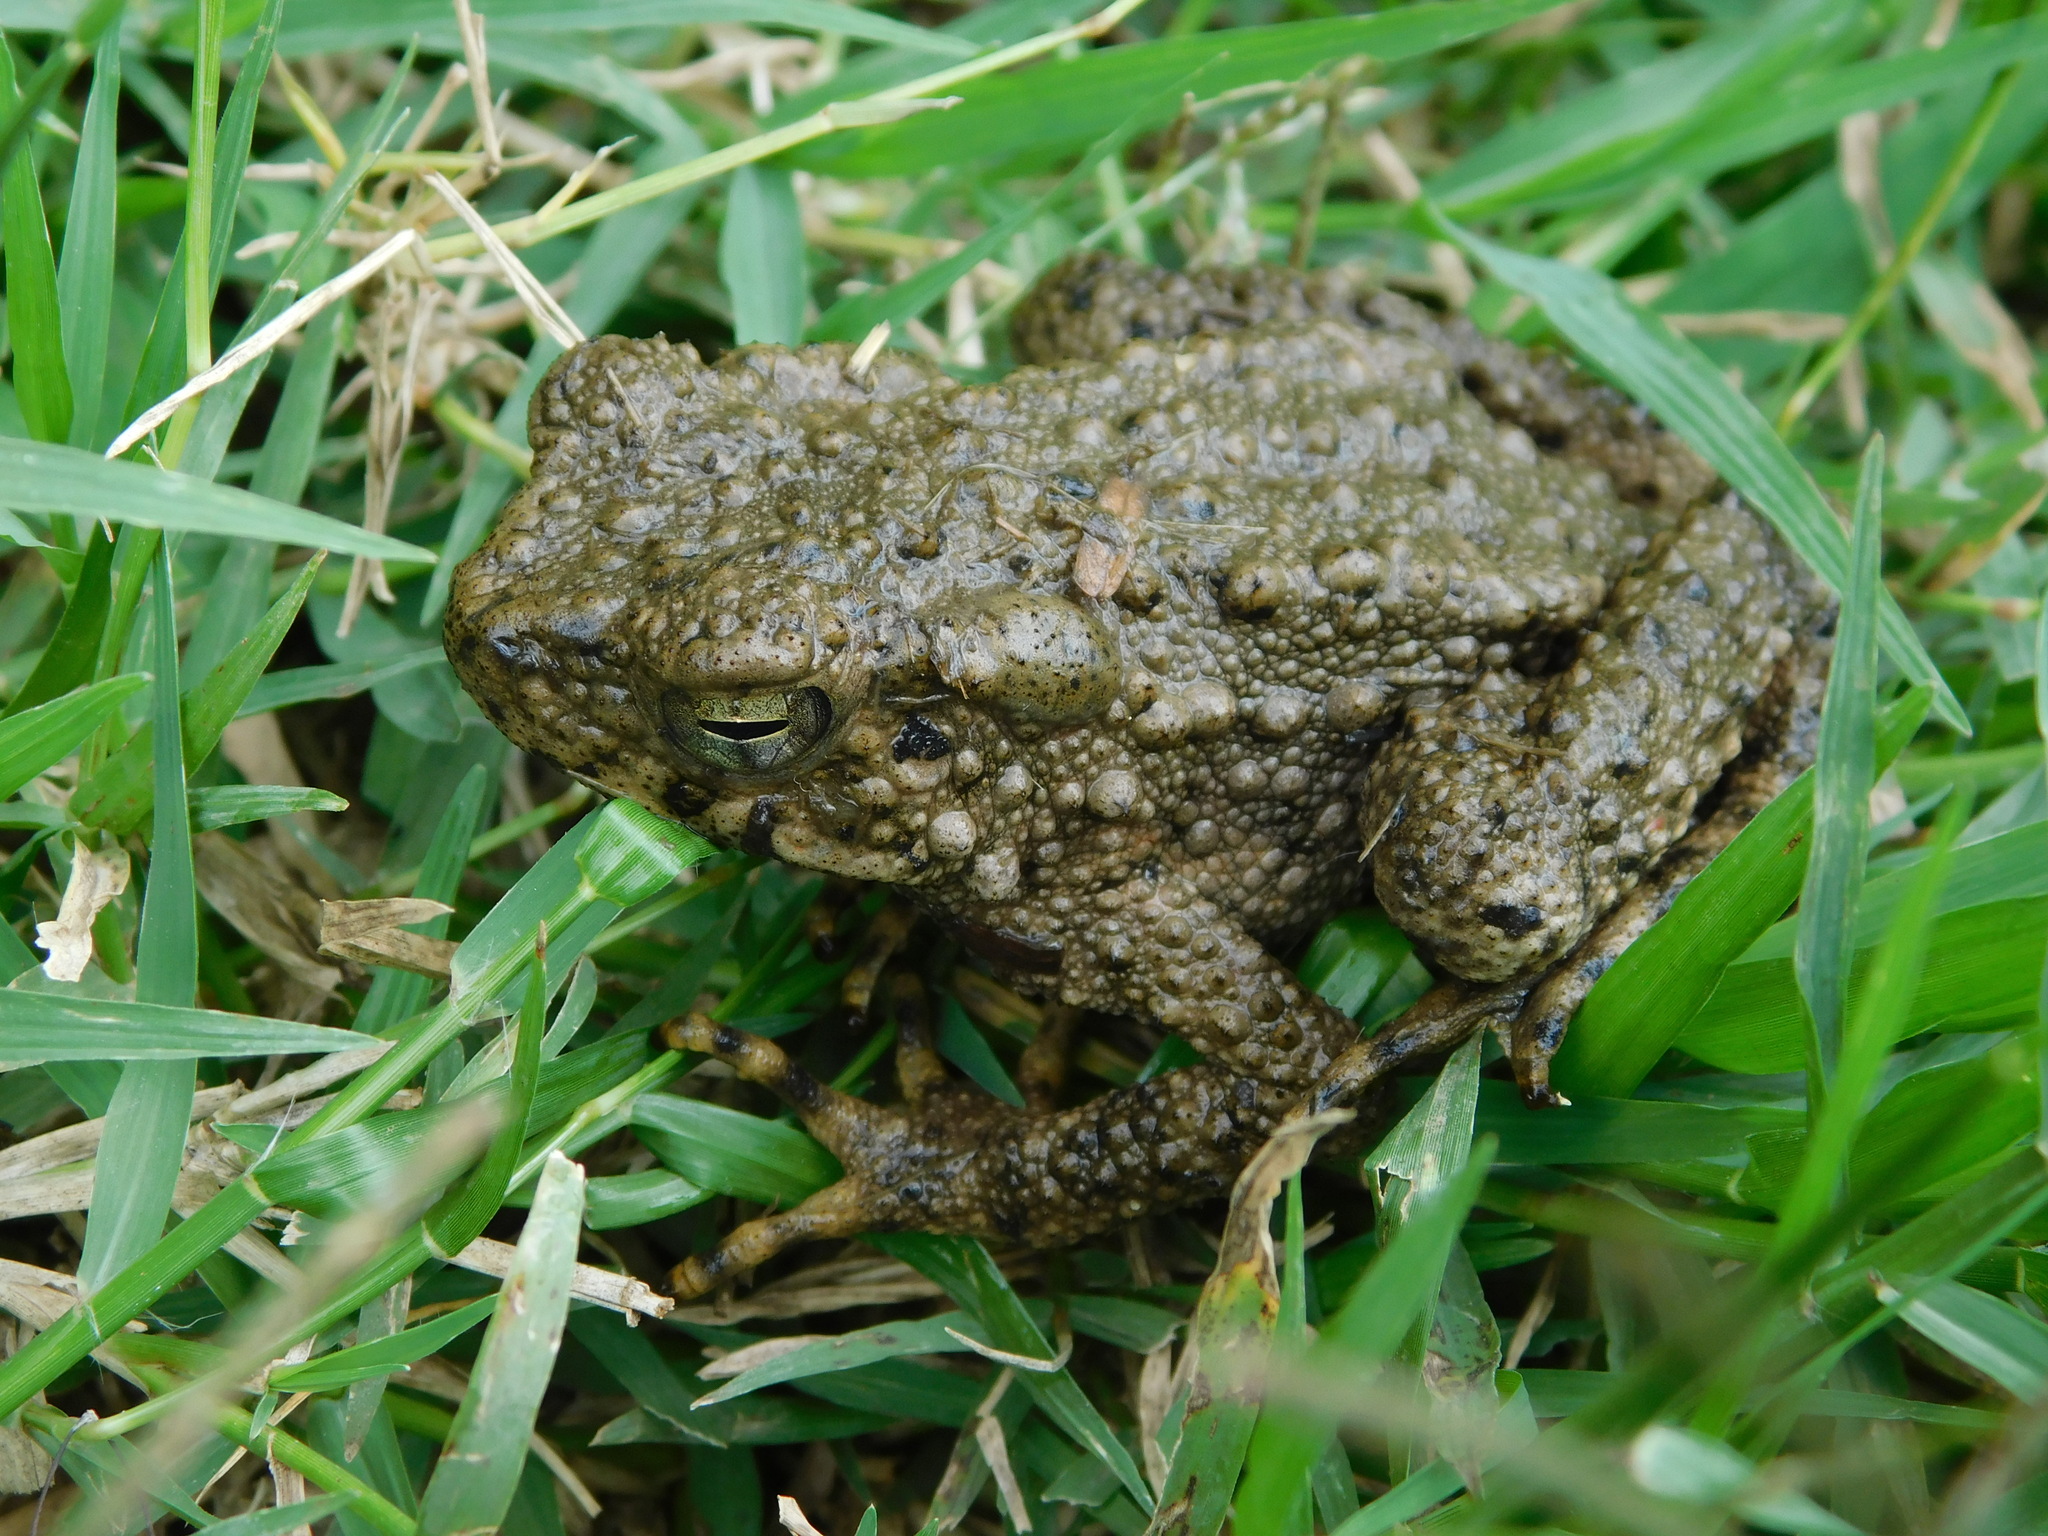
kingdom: Animalia
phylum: Chordata
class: Amphibia
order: Anura
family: Bufonidae
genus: Phrynoidis
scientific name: Phrynoidis asper
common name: Asian giant toad
